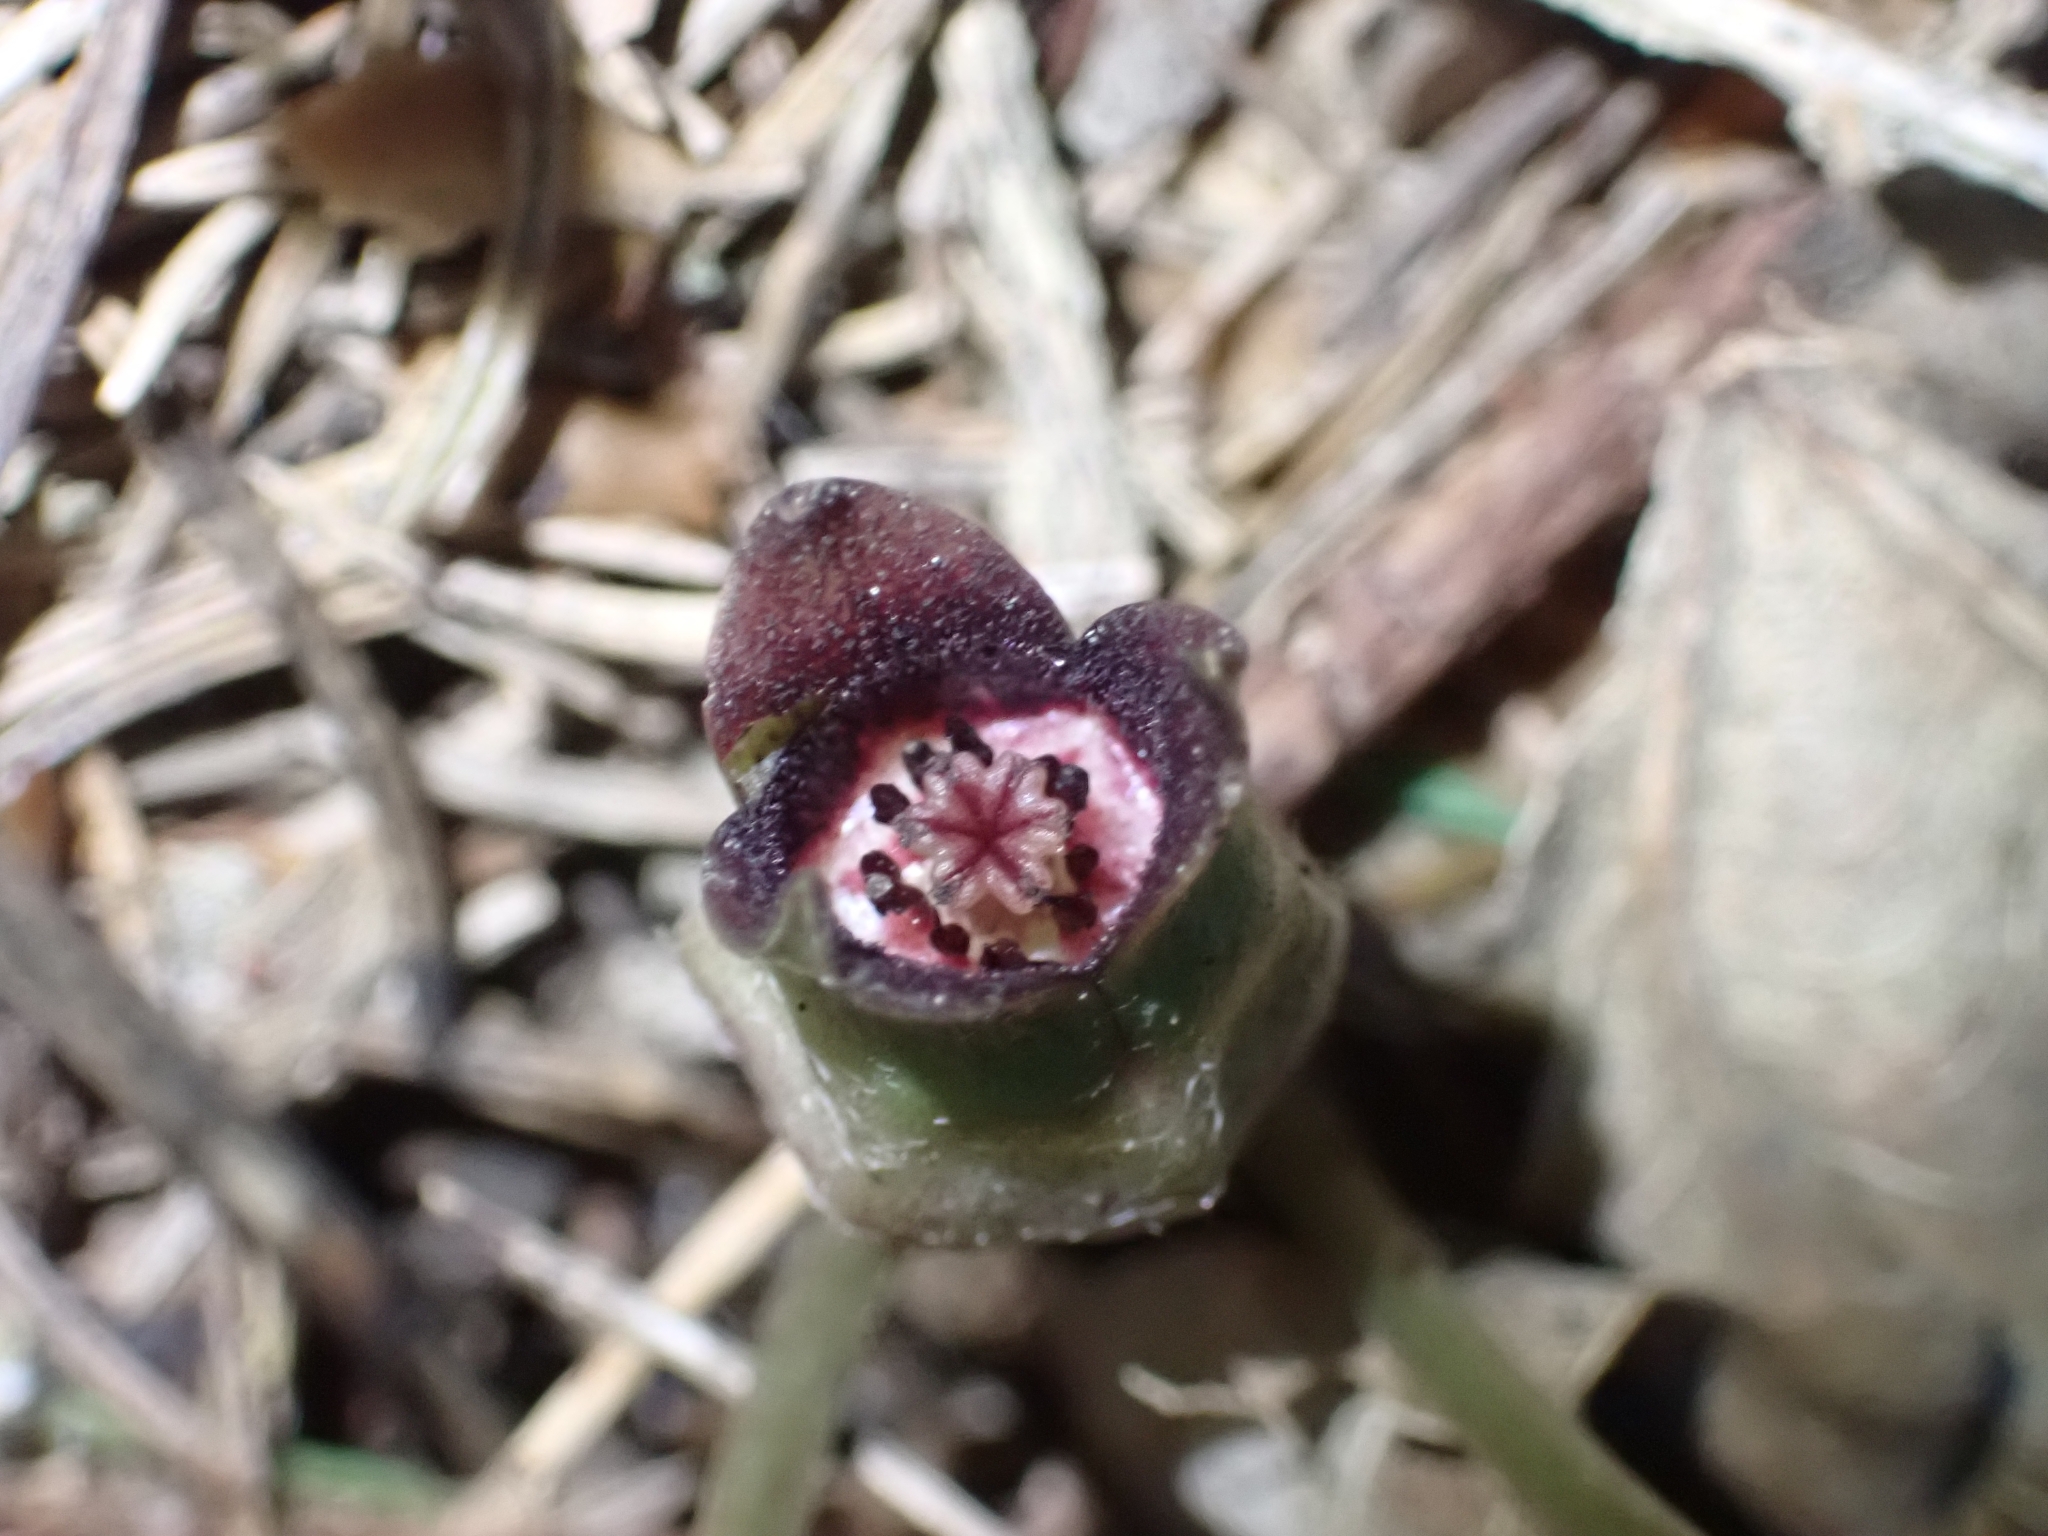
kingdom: Plantae
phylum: Tracheophyta
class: Magnoliopsida
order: Piperales
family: Aristolochiaceae
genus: Asarum
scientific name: Asarum europaeum
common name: Asarabacca
